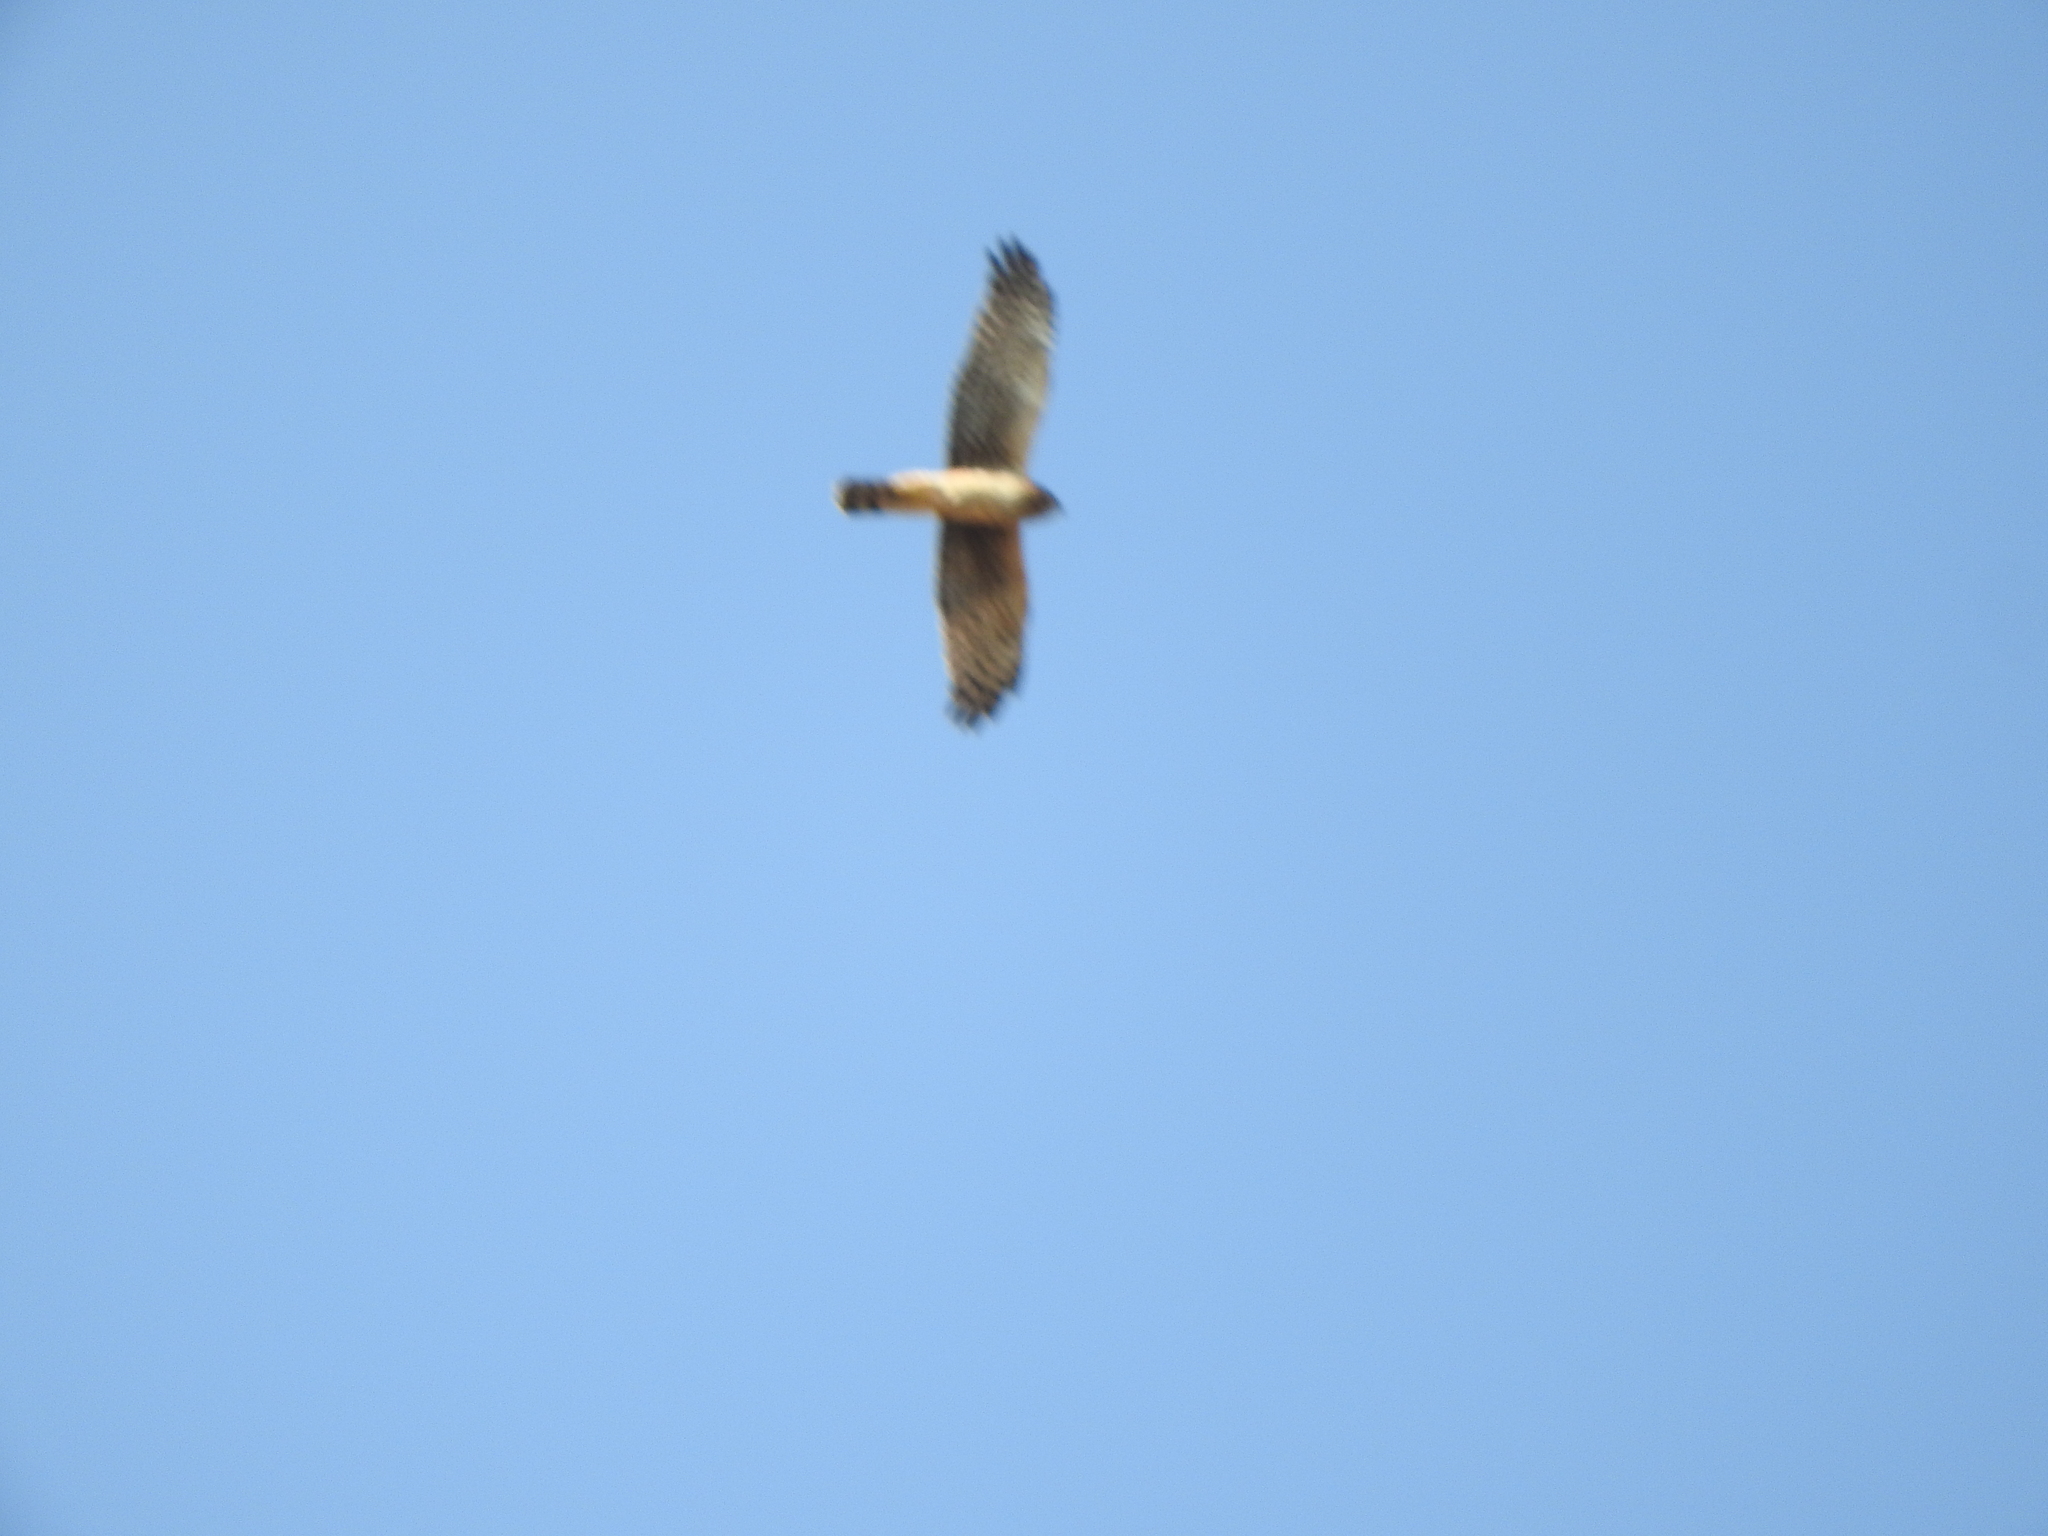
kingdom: Animalia
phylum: Chordata
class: Aves
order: Accipitriformes
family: Accipitridae
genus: Circus
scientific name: Circus cyaneus
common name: Hen harrier
